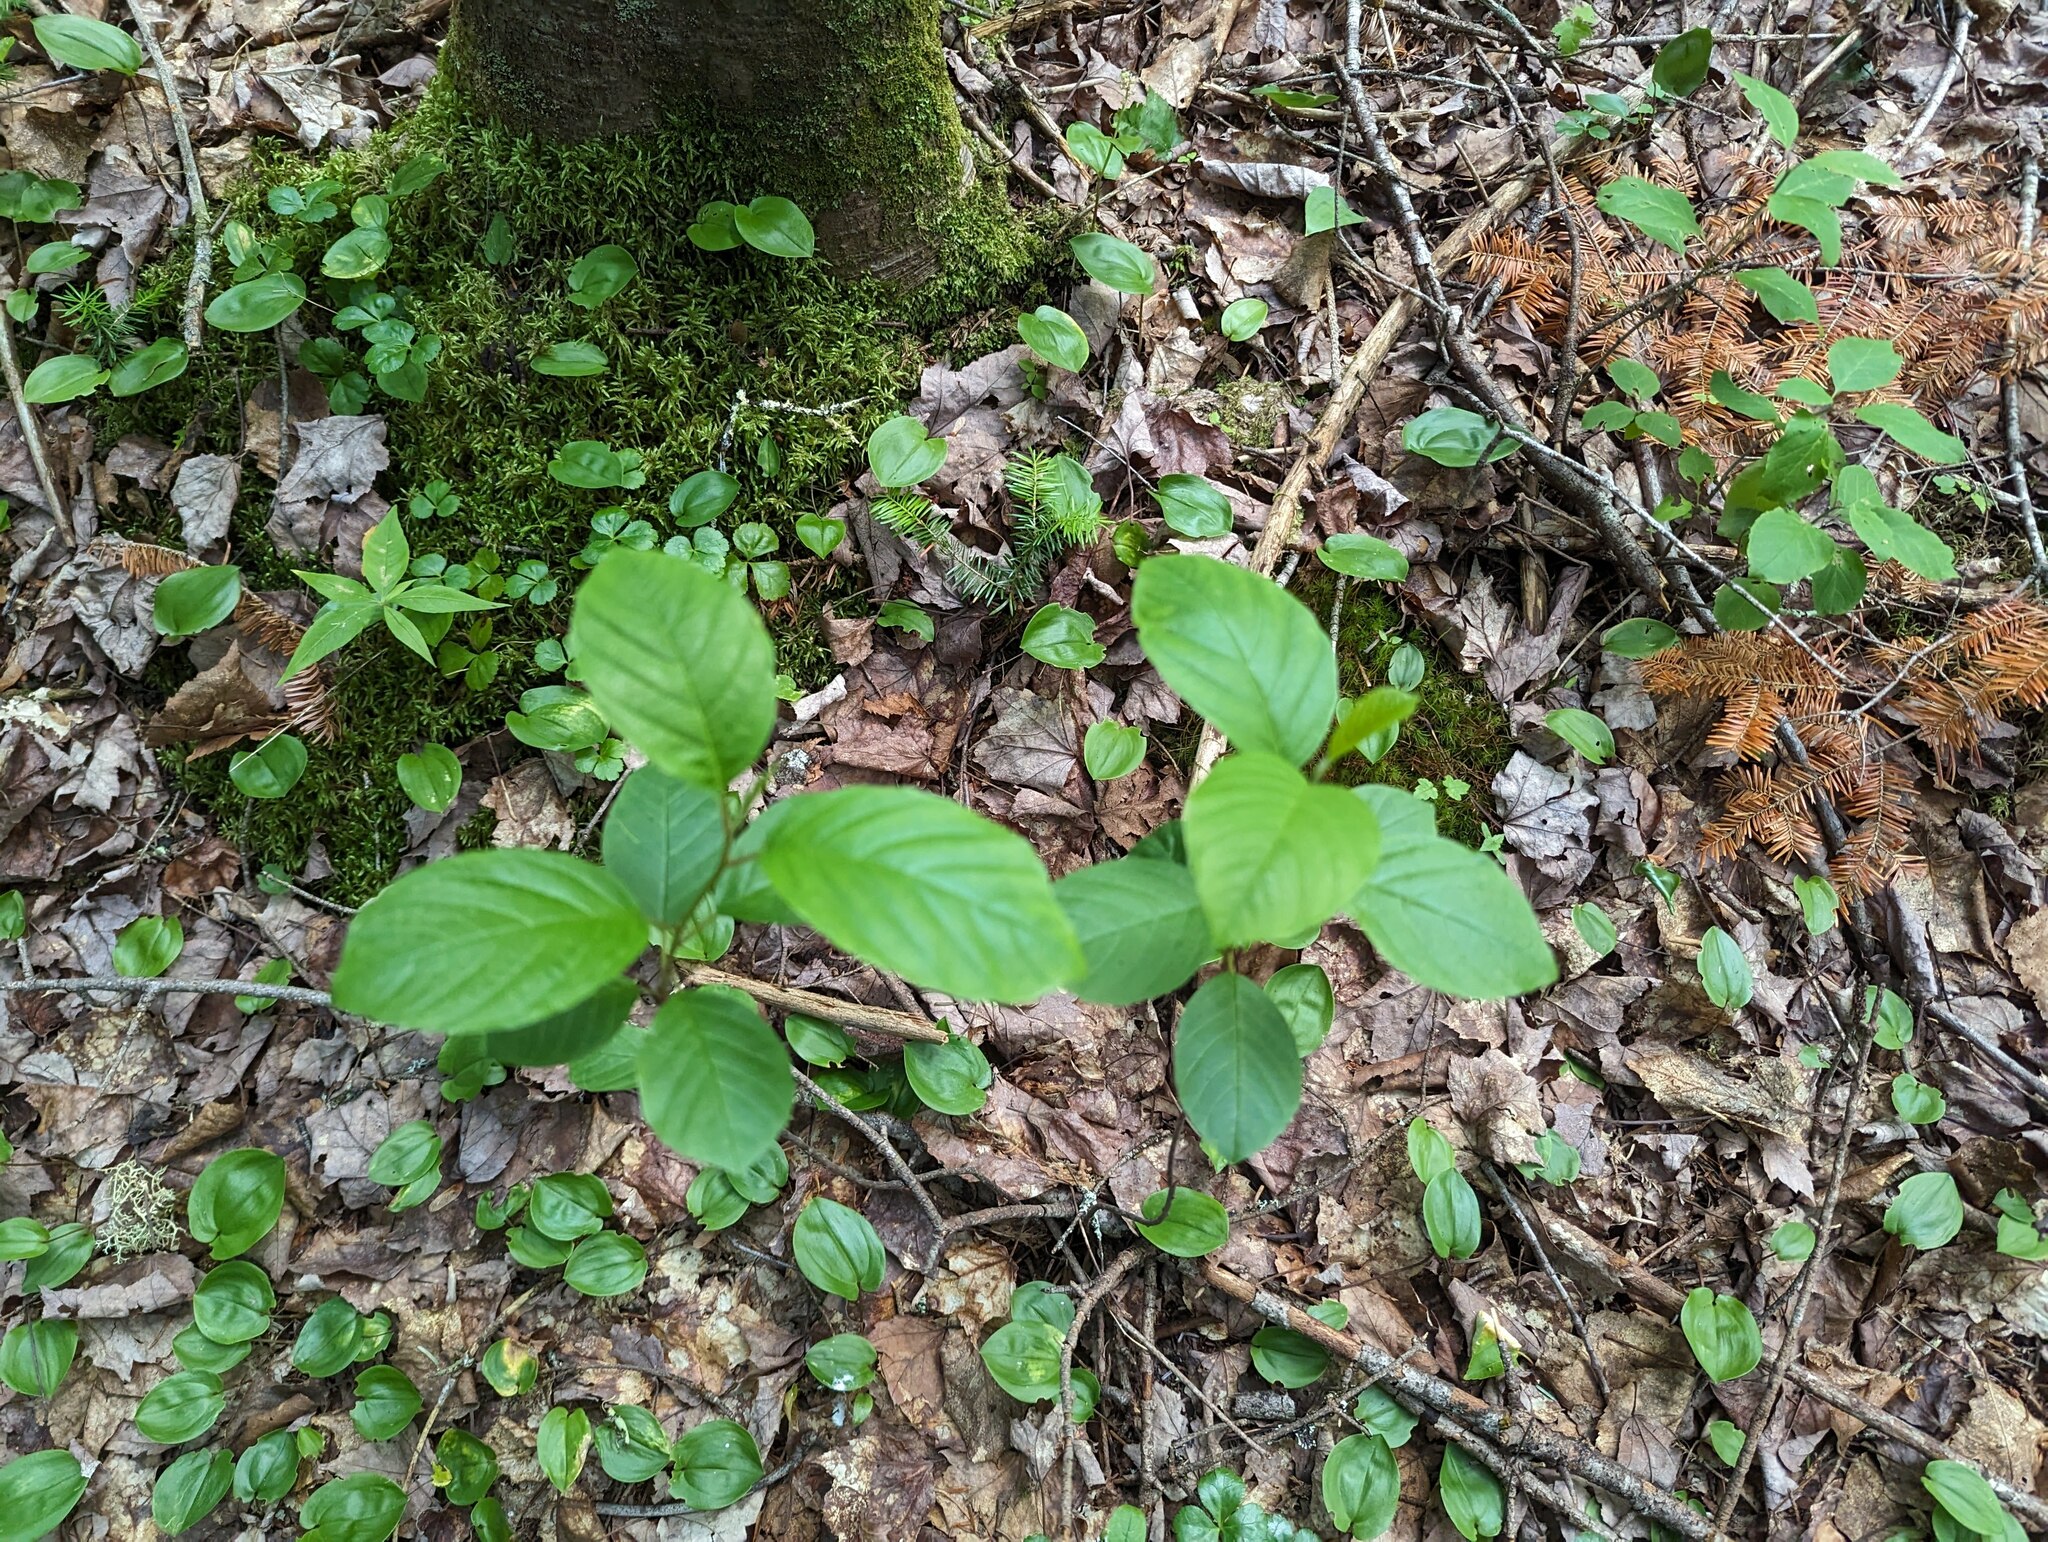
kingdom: Plantae
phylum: Tracheophyta
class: Liliopsida
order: Asparagales
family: Asparagaceae
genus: Maianthemum
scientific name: Maianthemum canadense
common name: False lily-of-the-valley
